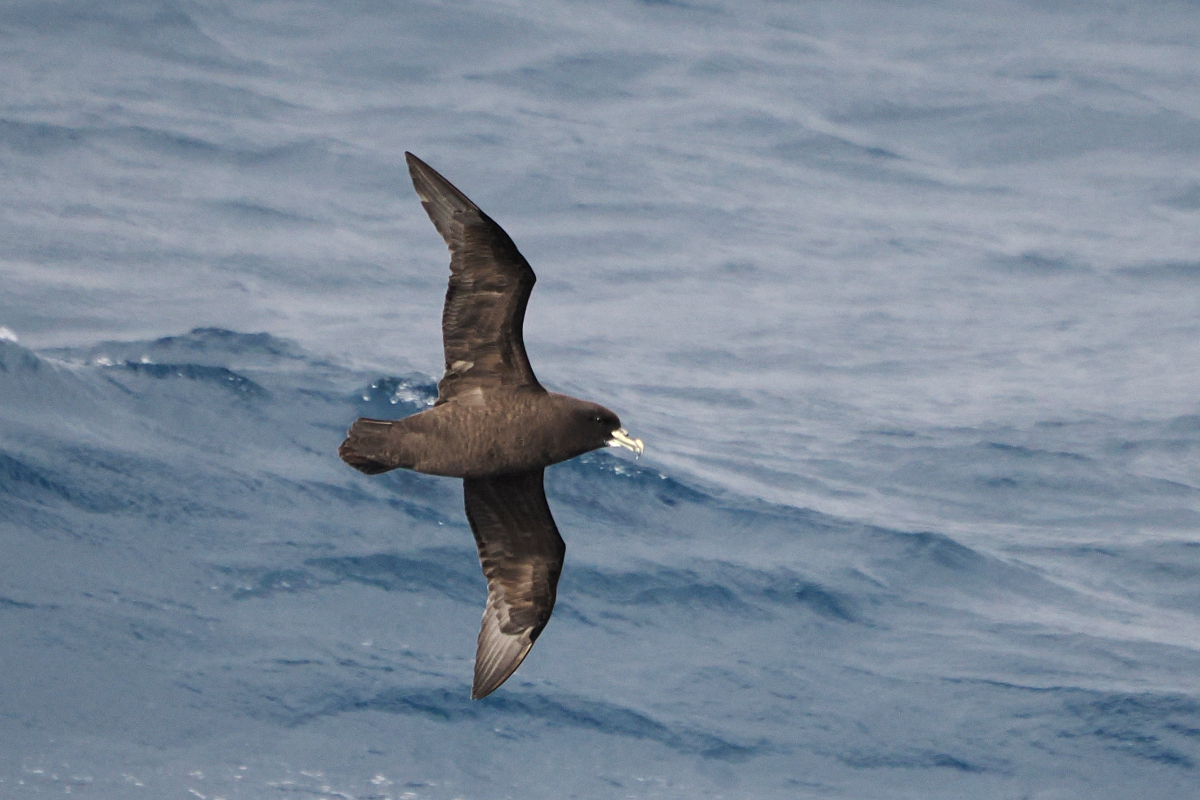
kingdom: Animalia
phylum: Chordata
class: Aves
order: Procellariiformes
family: Procellariidae
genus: Procellaria
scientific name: Procellaria aequinoctialis
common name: White-chinned petrel
